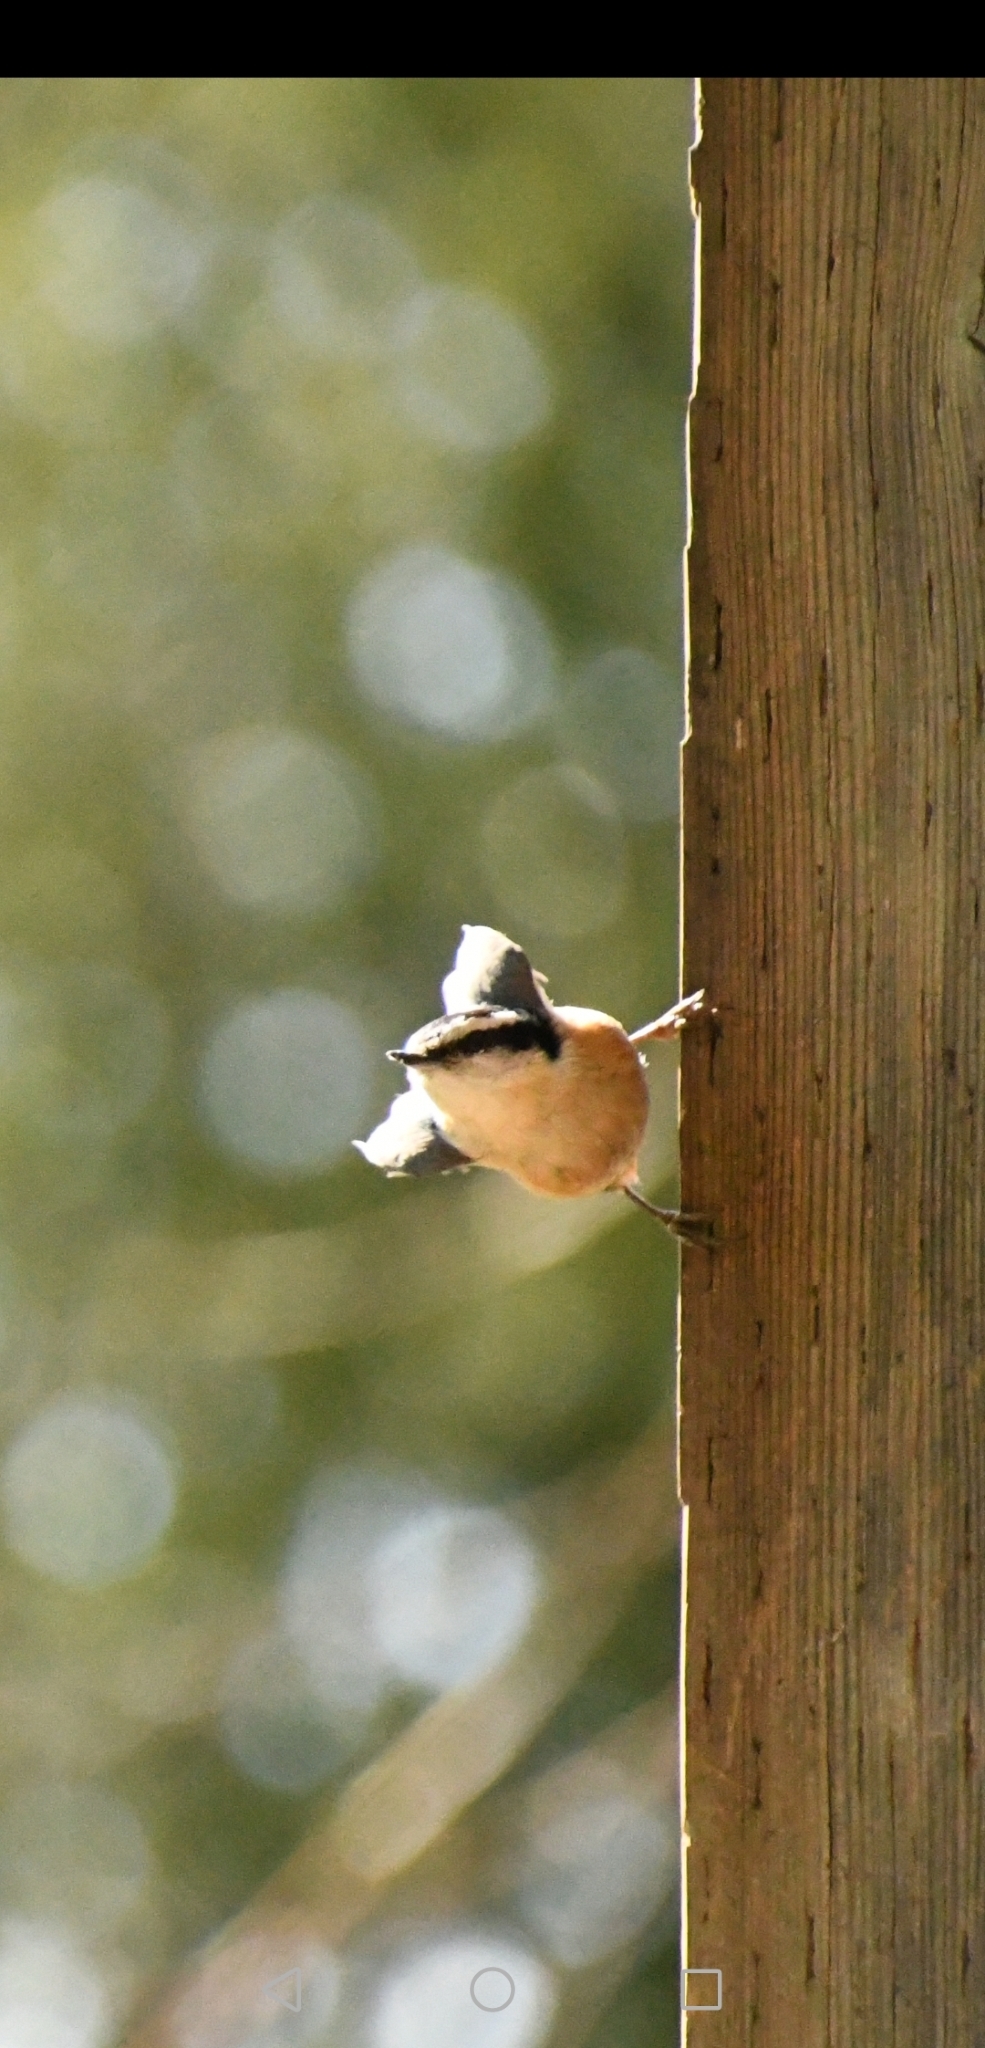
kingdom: Animalia
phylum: Chordata
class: Aves
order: Passeriformes
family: Sittidae
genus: Sitta
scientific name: Sitta canadensis
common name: Red-breasted nuthatch
